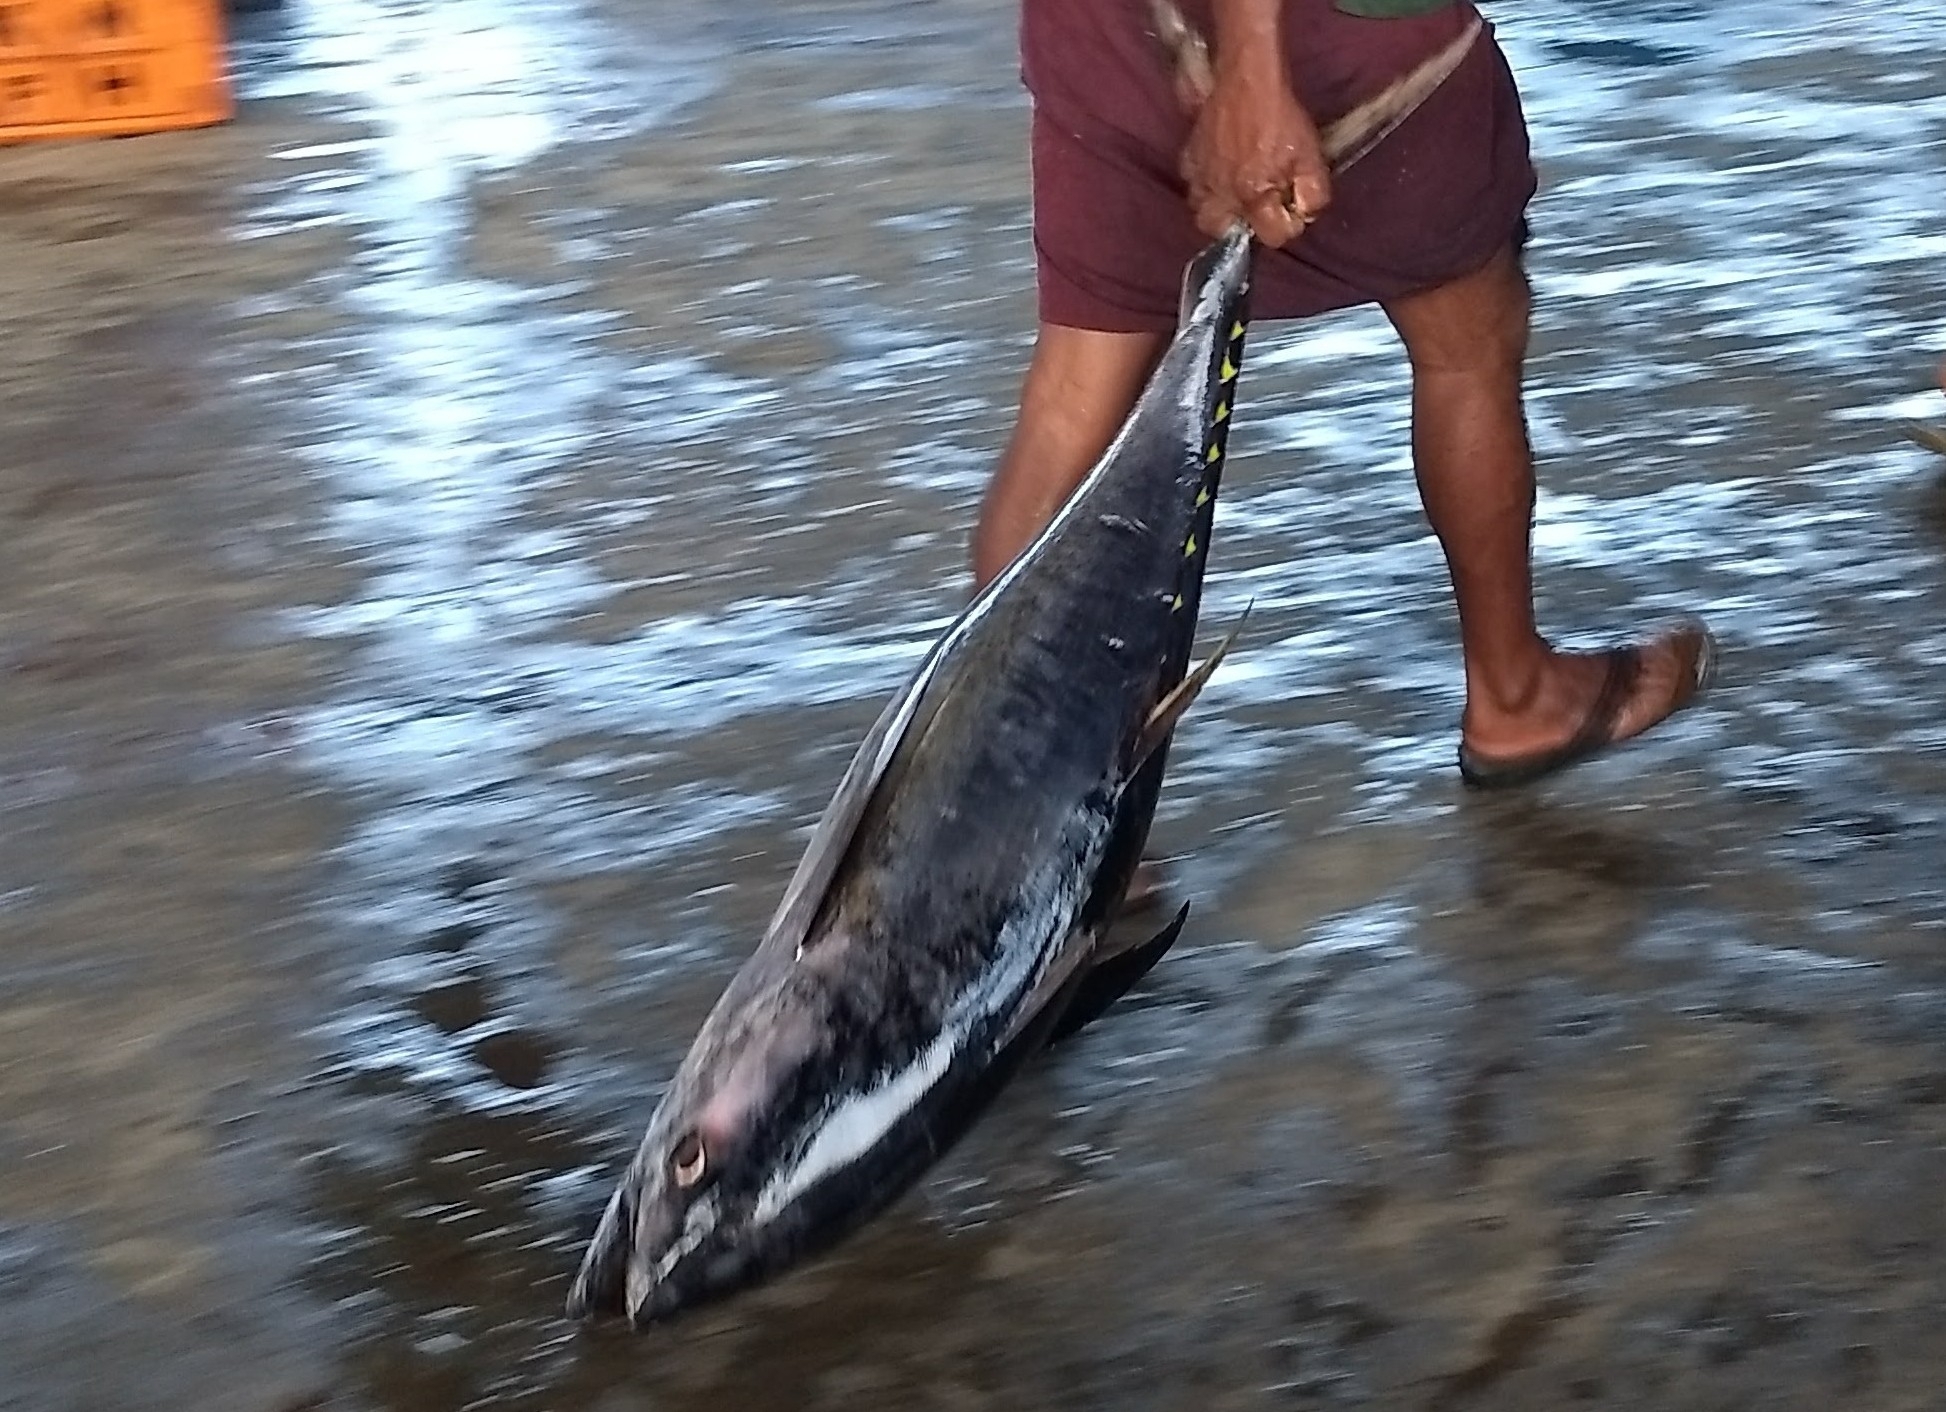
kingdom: Animalia
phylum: Chordata
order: Perciformes
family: Scombridae
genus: Thunnus
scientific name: Thunnus obesus
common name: Bigeye tuna
